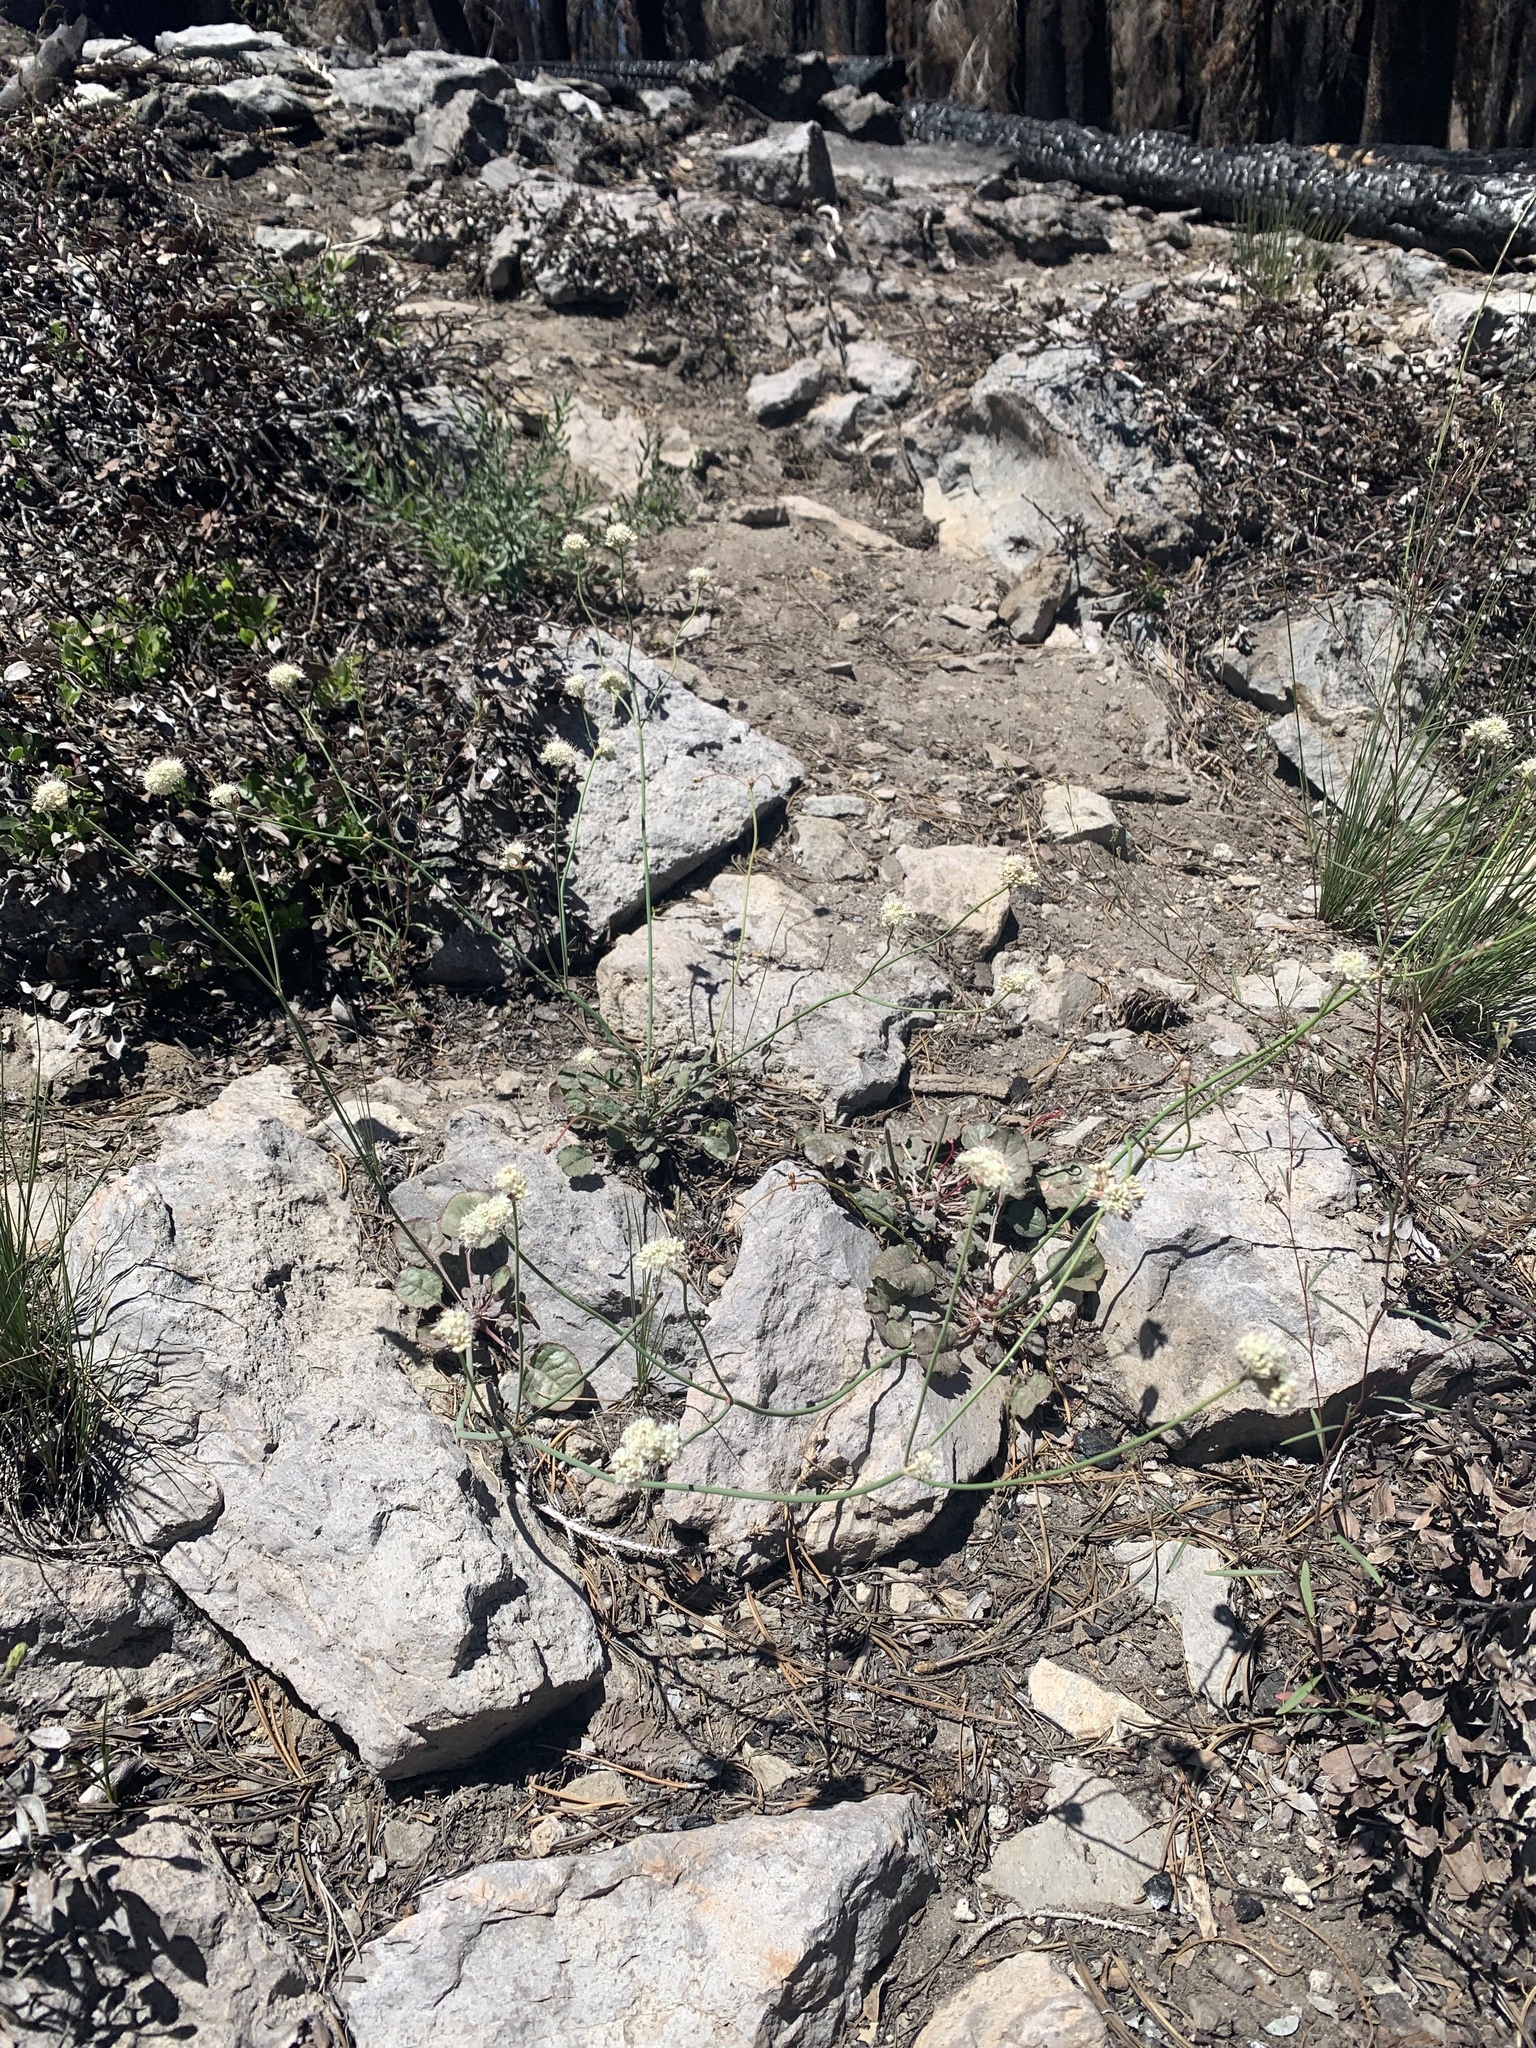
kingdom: Plantae
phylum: Tracheophyta
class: Magnoliopsida
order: Caryophyllales
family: Polygonaceae
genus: Eriogonum
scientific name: Eriogonum nudum
